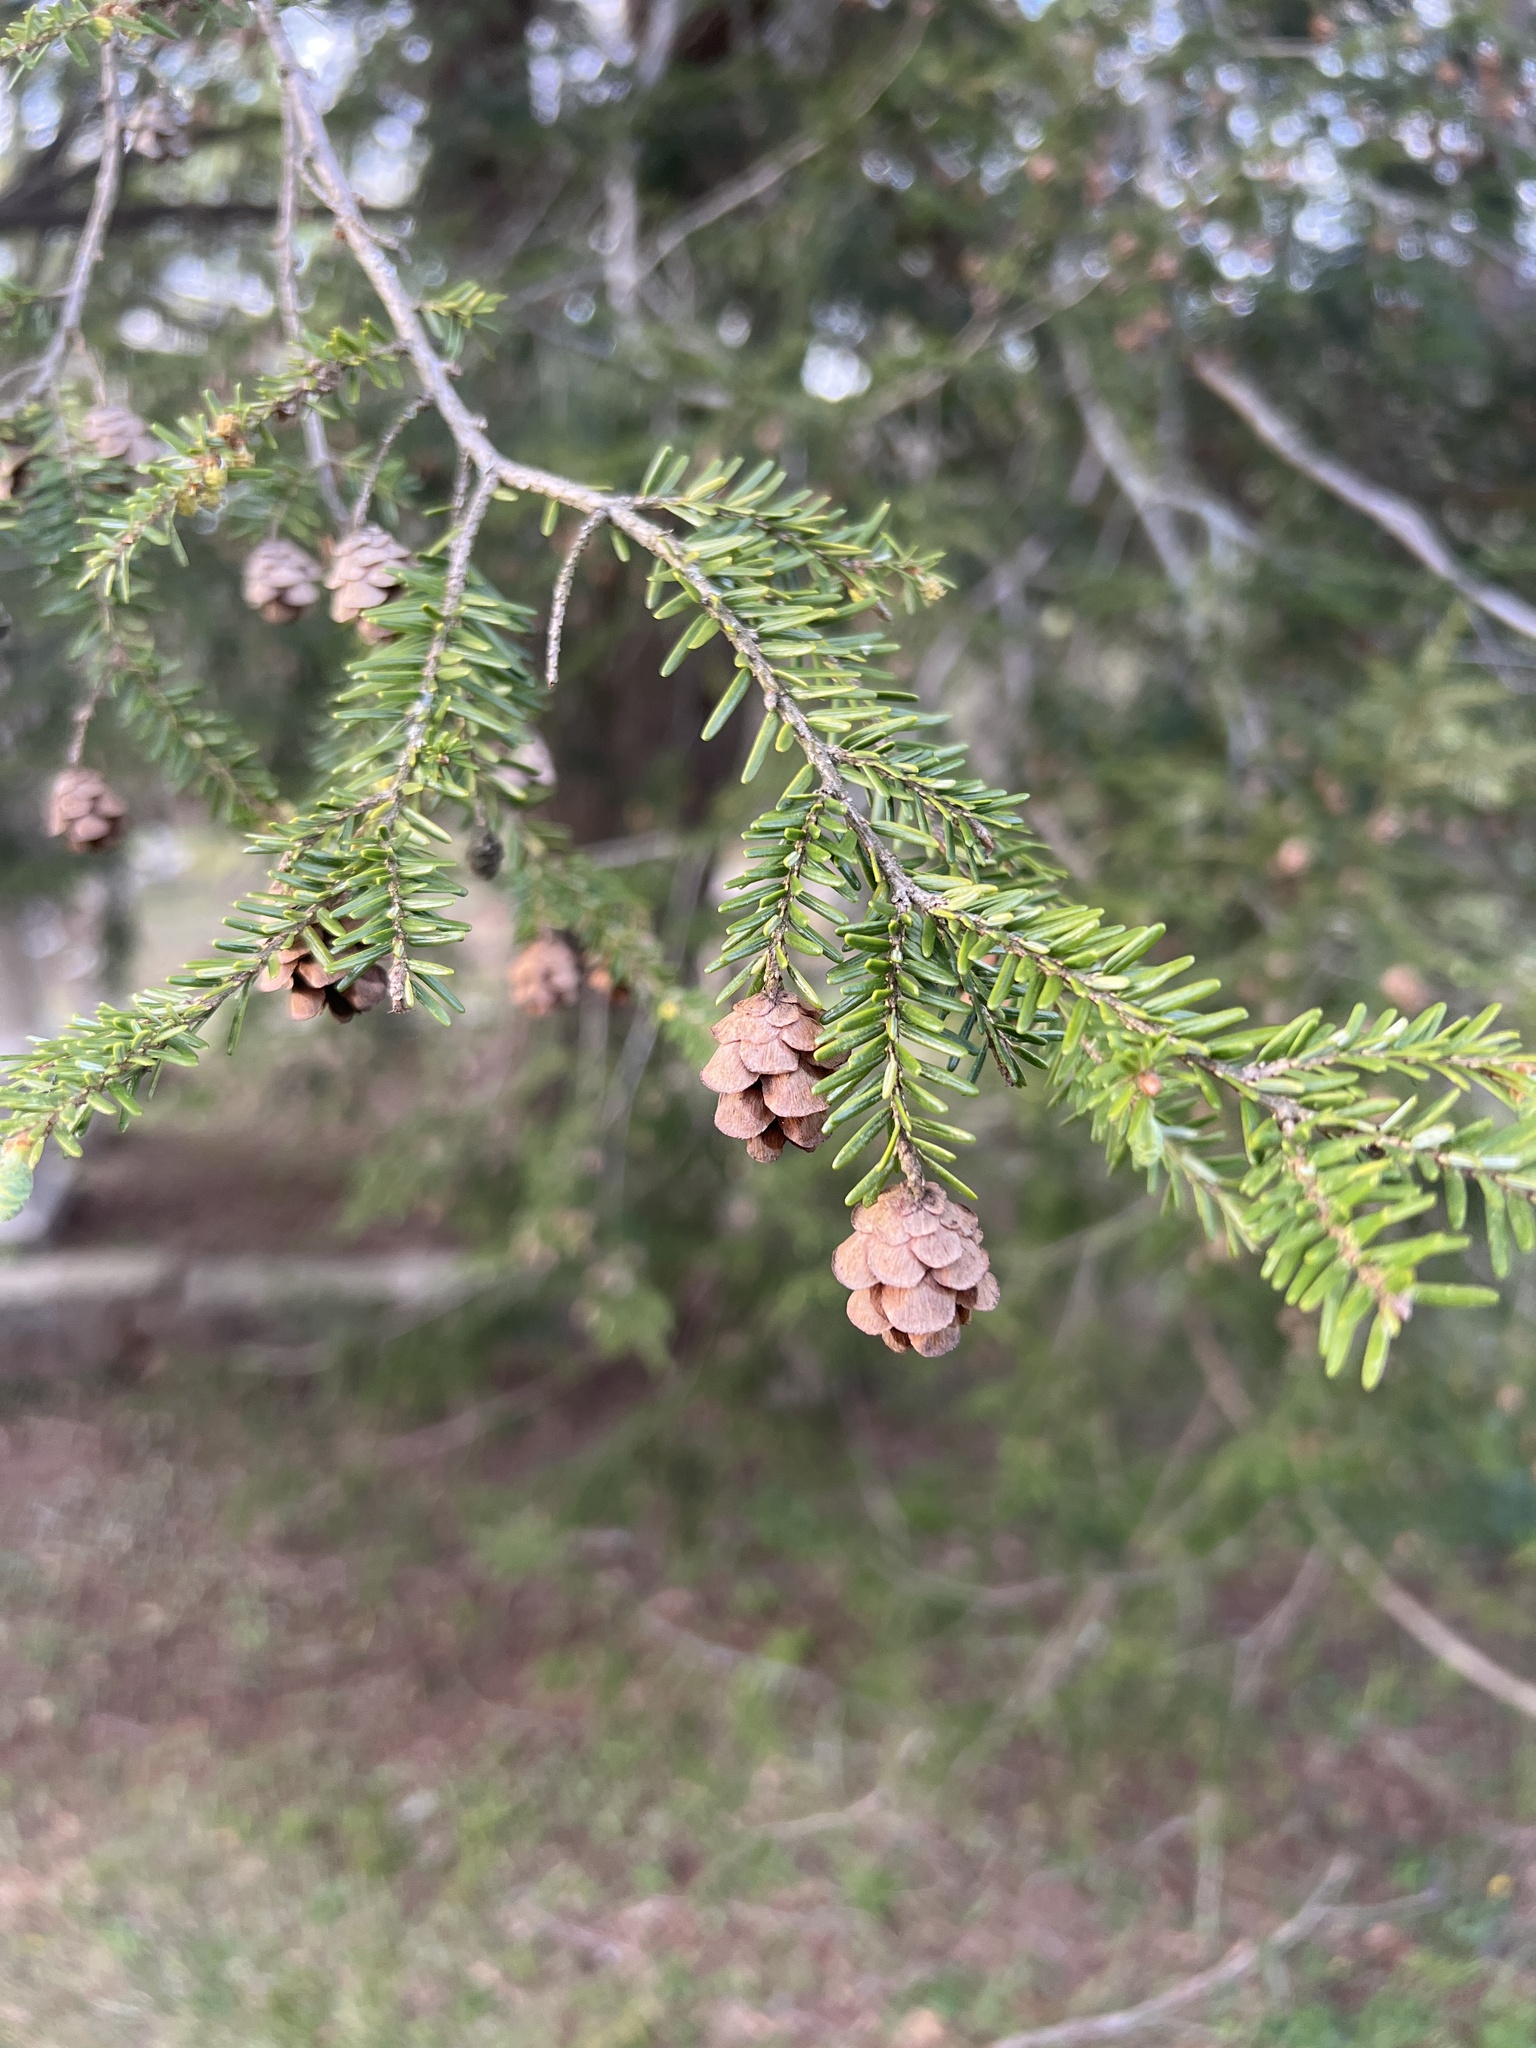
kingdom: Plantae
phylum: Tracheophyta
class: Pinopsida
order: Pinales
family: Pinaceae
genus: Tsuga
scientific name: Tsuga canadensis
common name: Eastern hemlock
